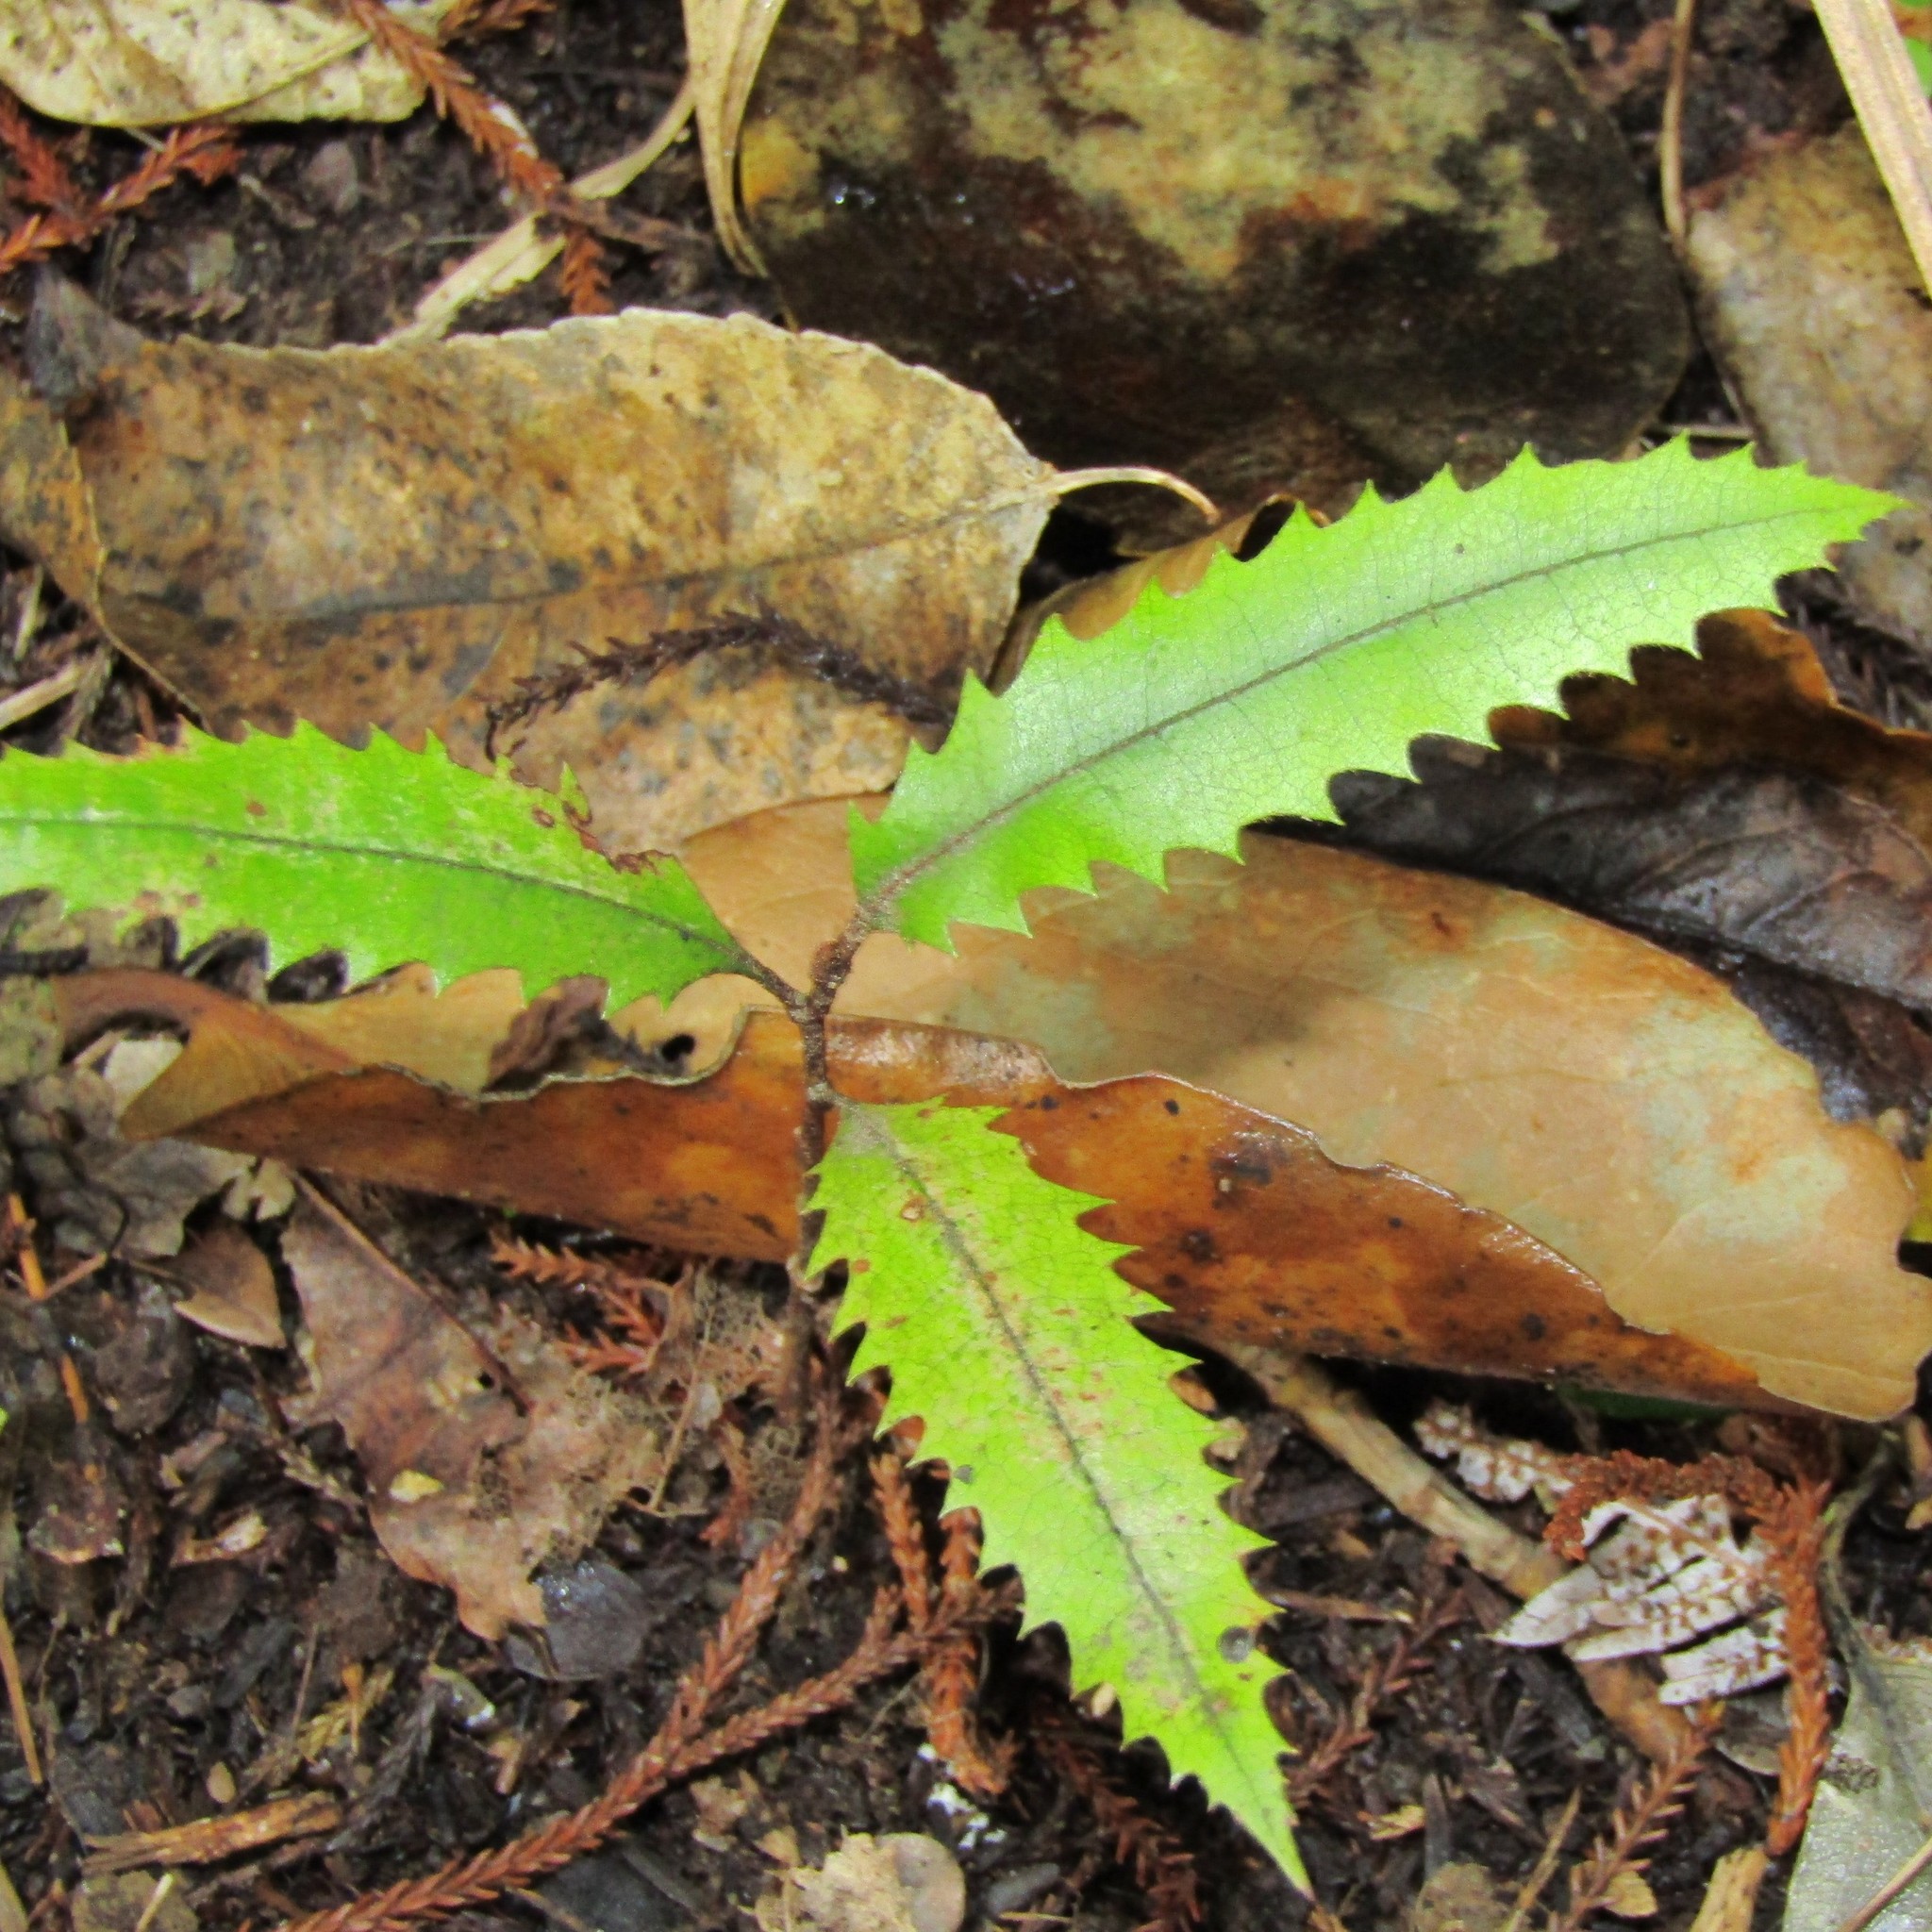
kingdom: Plantae
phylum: Tracheophyta
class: Magnoliopsida
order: Proteales
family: Proteaceae
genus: Knightia
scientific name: Knightia excelsa
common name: New zealand-honeysuckle
